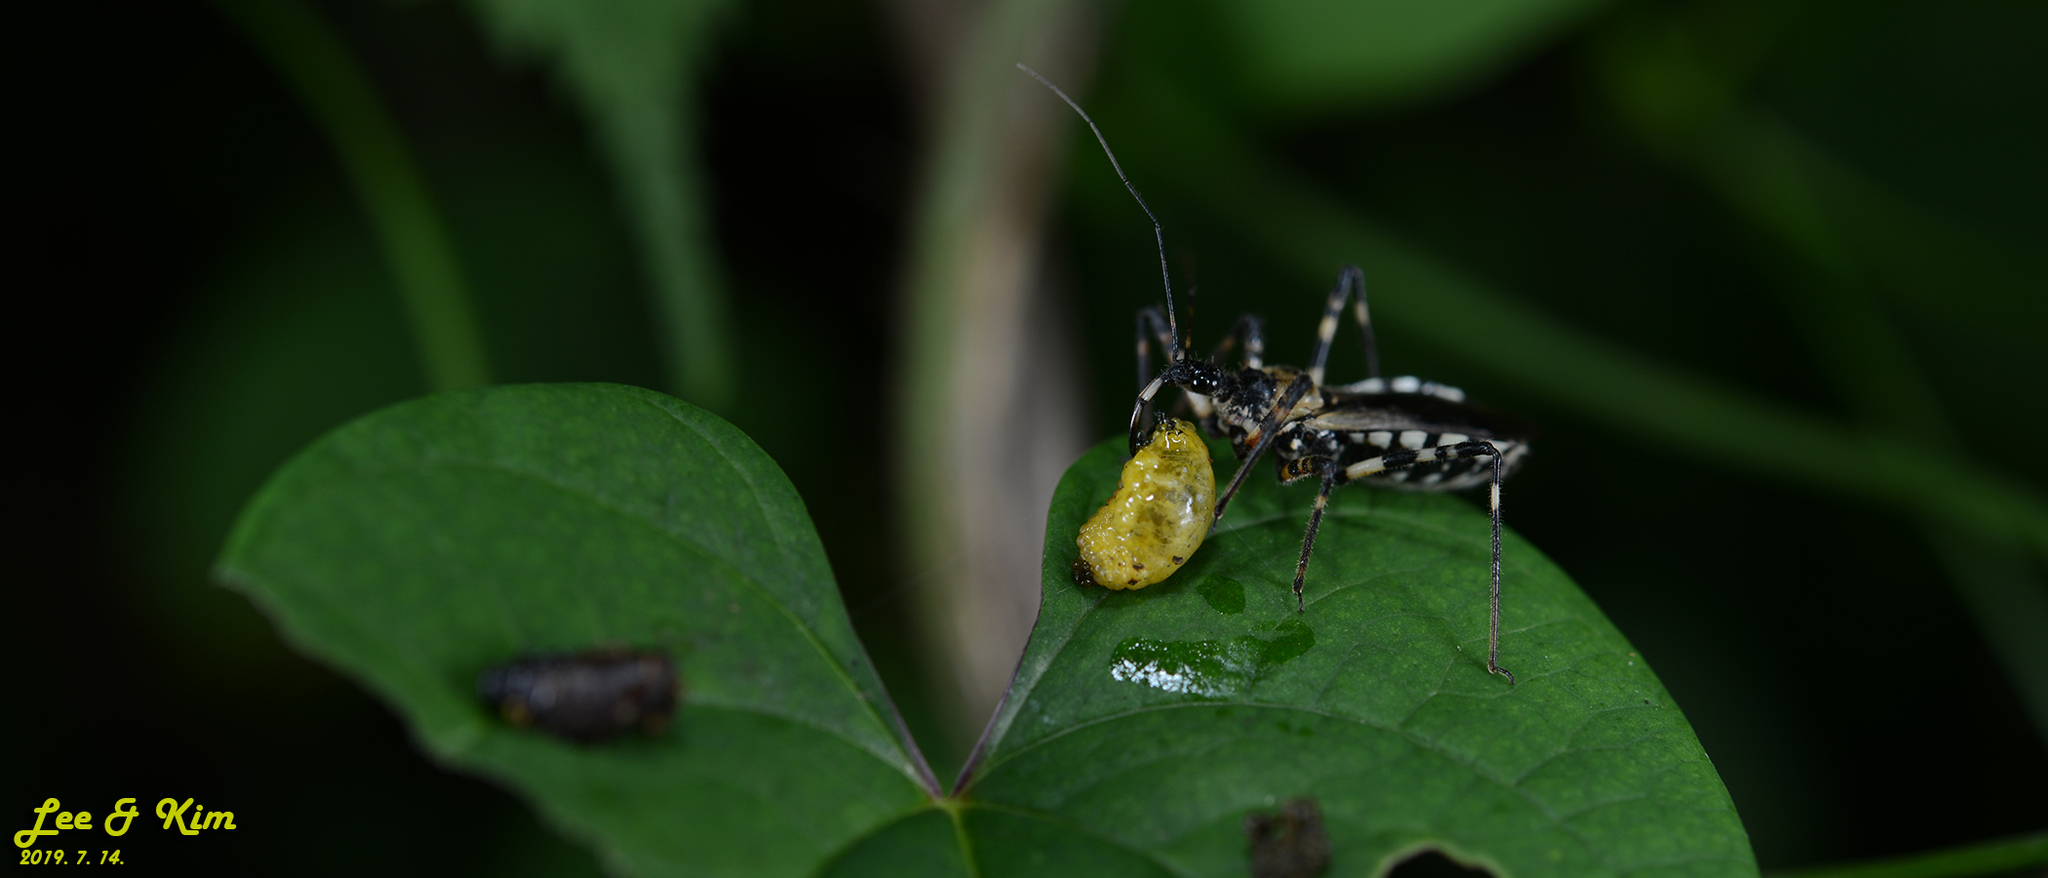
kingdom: Animalia
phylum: Arthropoda
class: Insecta
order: Hemiptera
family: Reduviidae
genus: Sphedanolestes
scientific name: Sphedanolestes impressicollis
